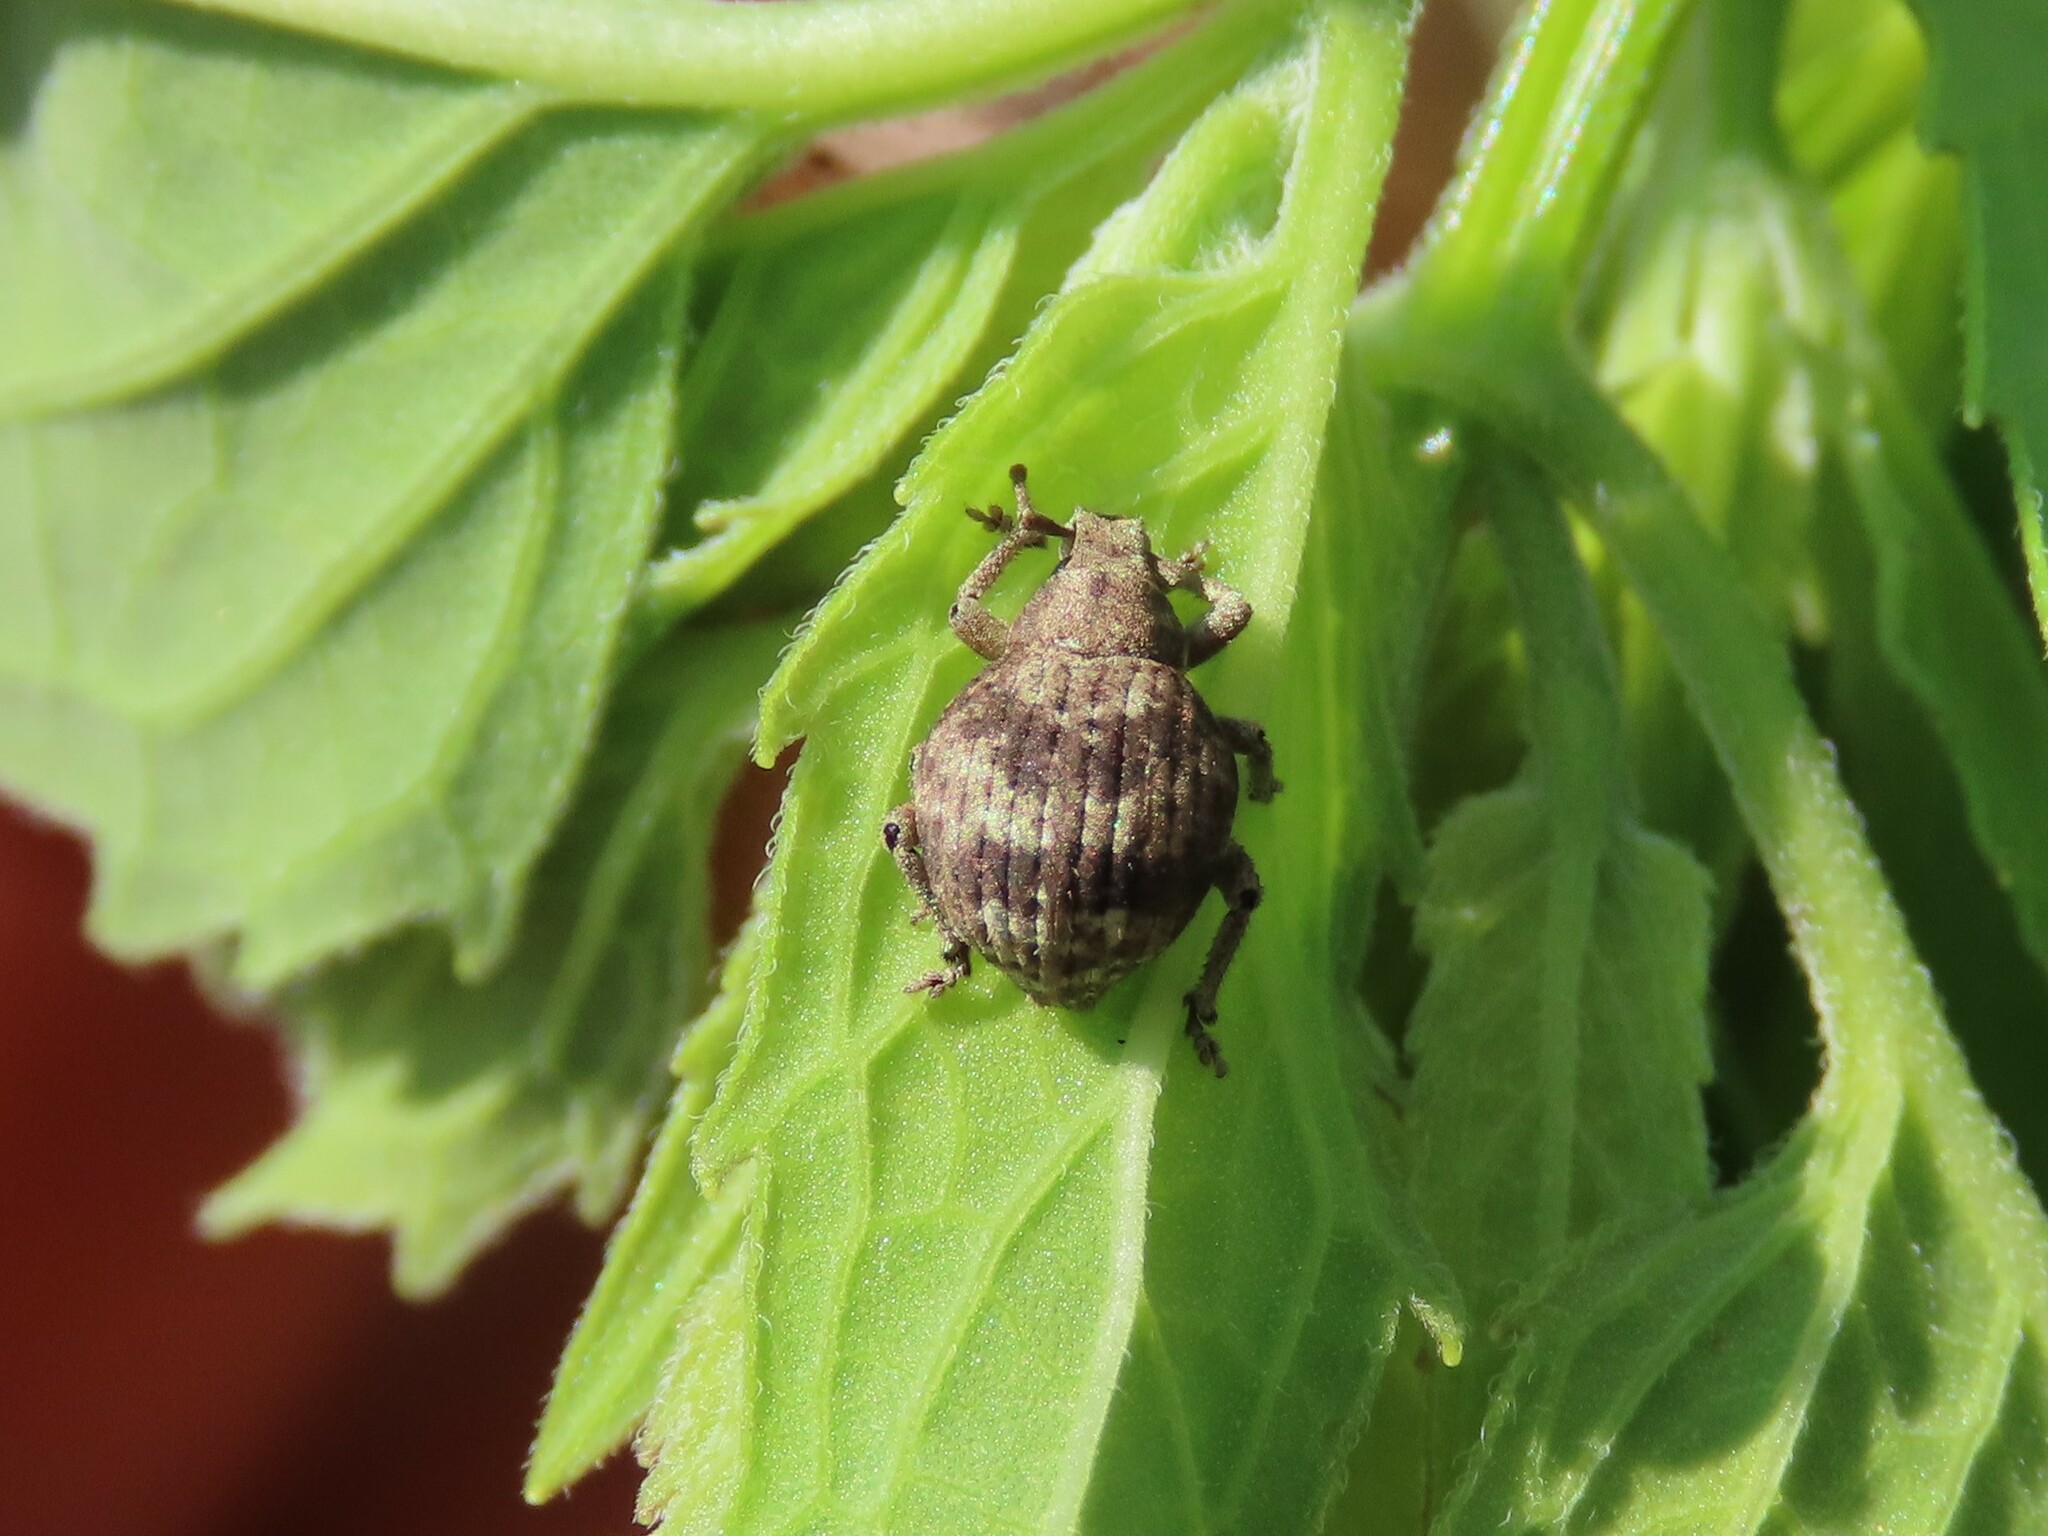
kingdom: Animalia
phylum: Arthropoda
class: Insecta
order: Coleoptera
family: Curculionidae
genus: Pseudocneorhinus
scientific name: Pseudocneorhinus bifasciatus
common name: Two-banded japanese weevil
